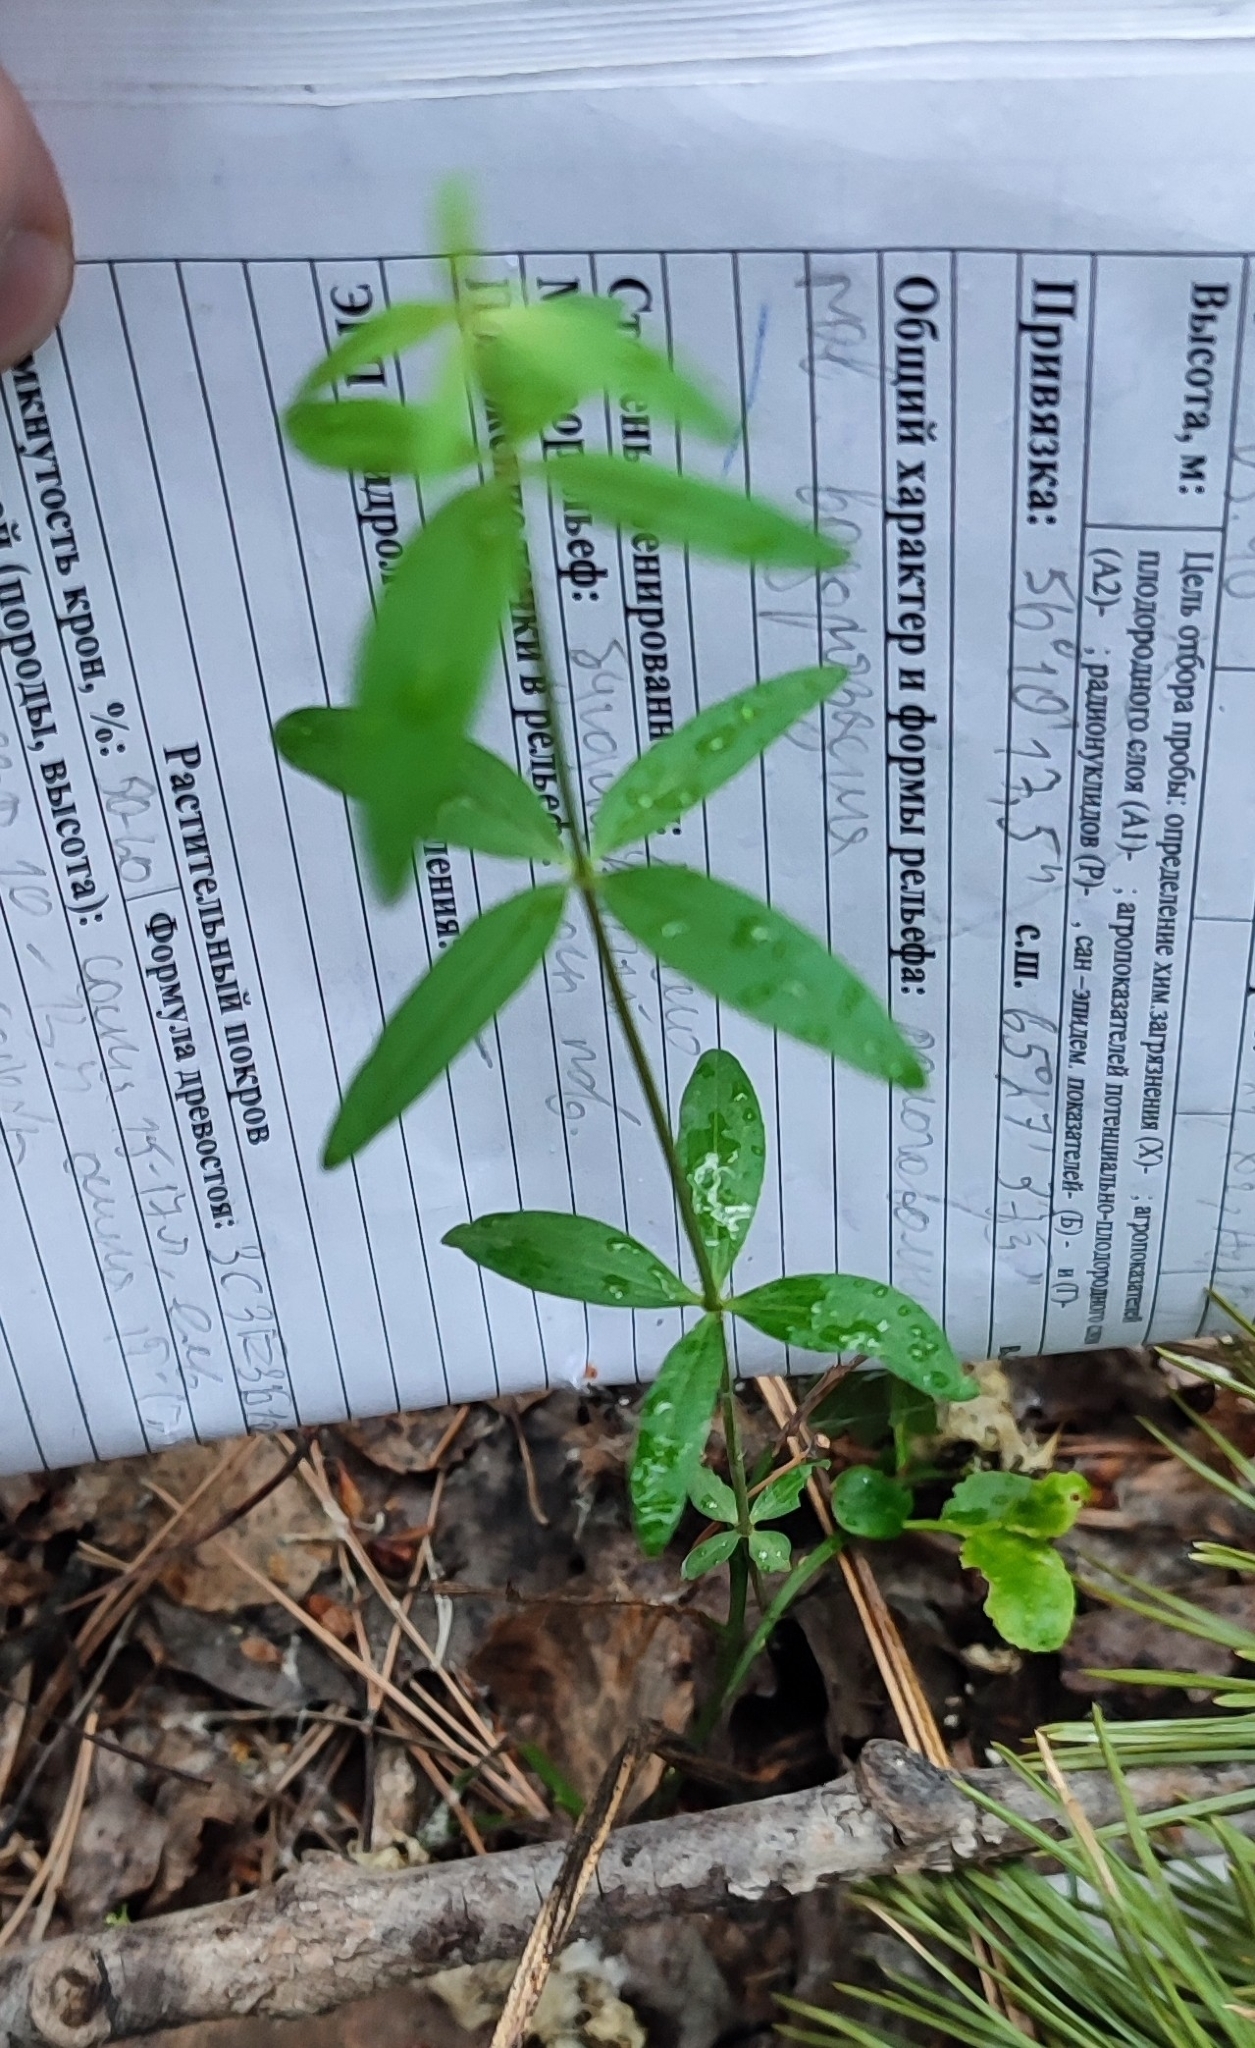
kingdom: Plantae
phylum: Tracheophyta
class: Magnoliopsida
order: Gentianales
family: Rubiaceae
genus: Galium
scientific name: Galium boreale
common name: Northern bedstraw
